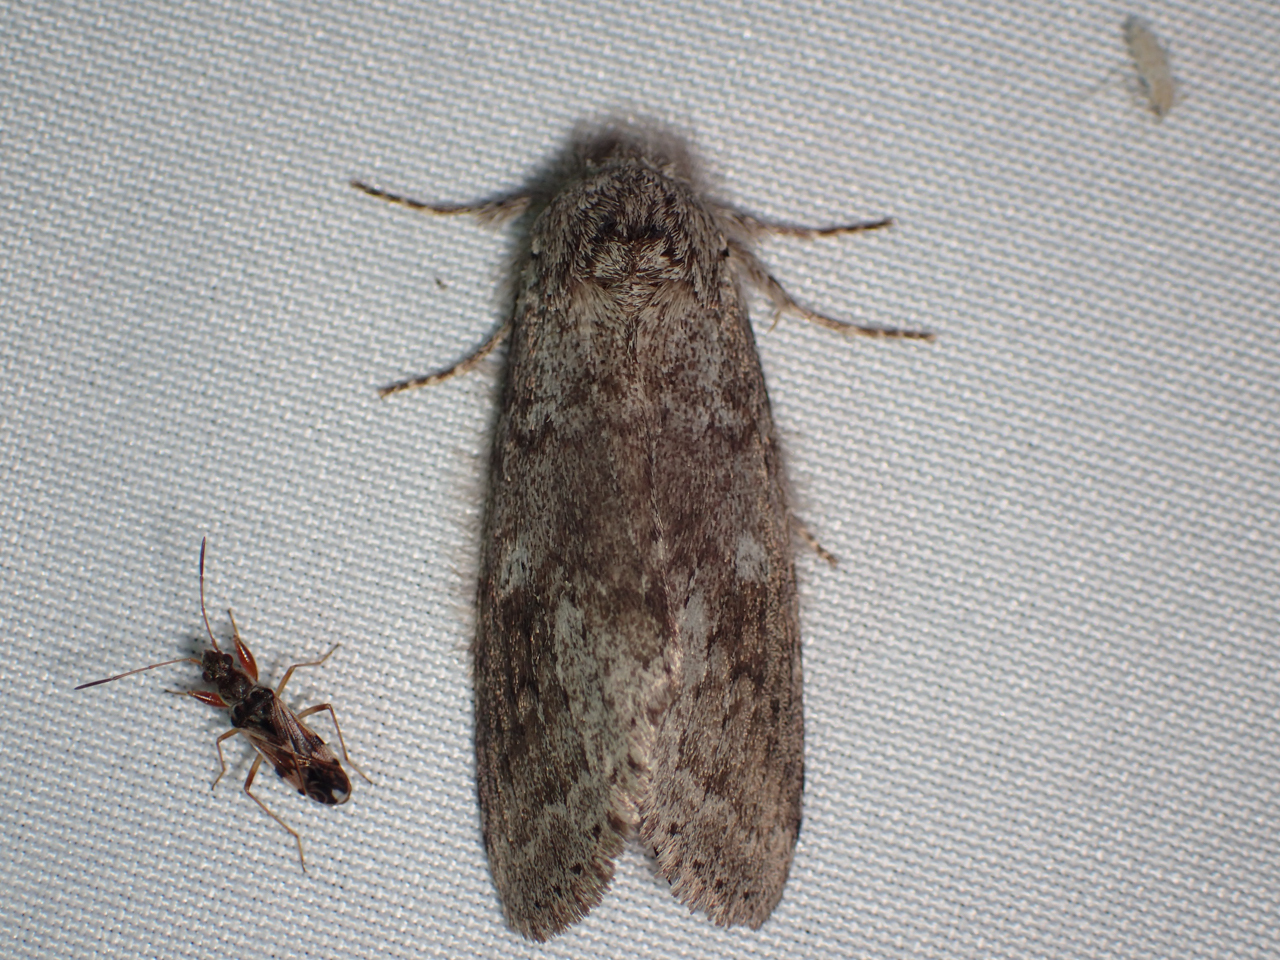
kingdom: Animalia
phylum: Arthropoda
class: Insecta
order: Lepidoptera
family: Notodontidae
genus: Lochmaeus
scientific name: Lochmaeus manteo
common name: Variable oakleaf caterpillar moth
